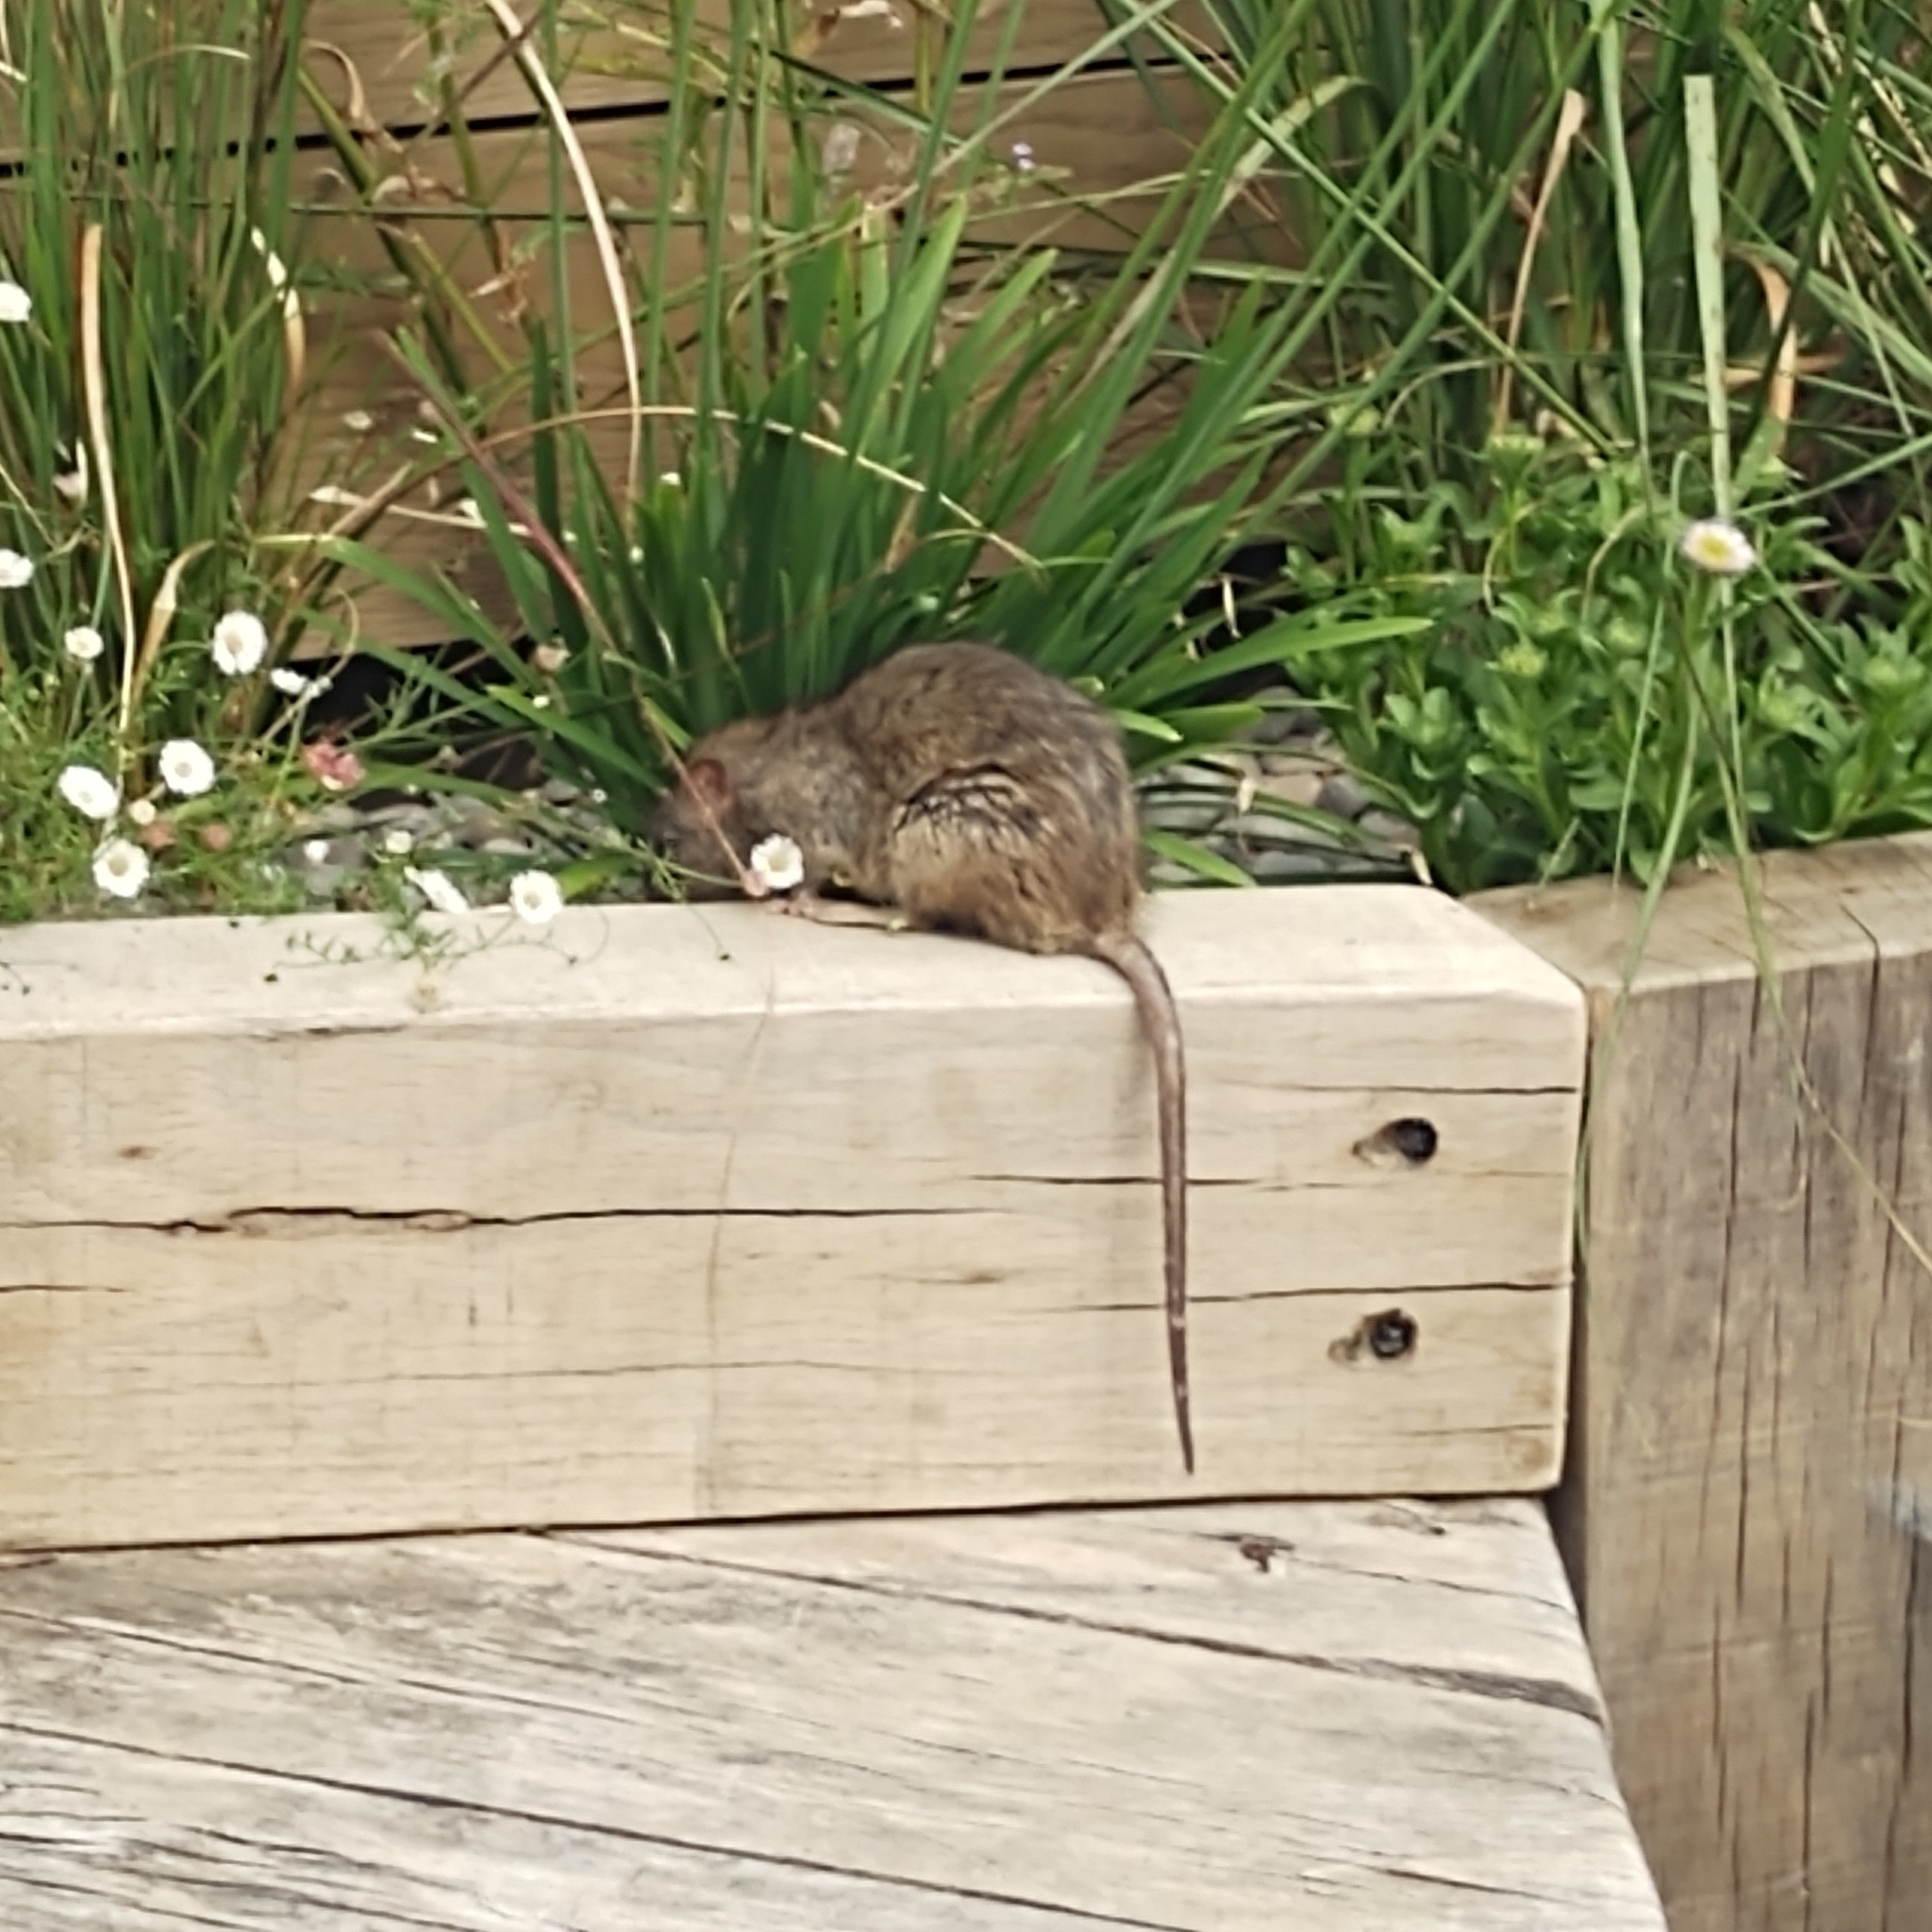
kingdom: Animalia
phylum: Chordata
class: Mammalia
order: Rodentia
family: Muridae
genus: Rattus
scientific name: Rattus norvegicus
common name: Brown rat
